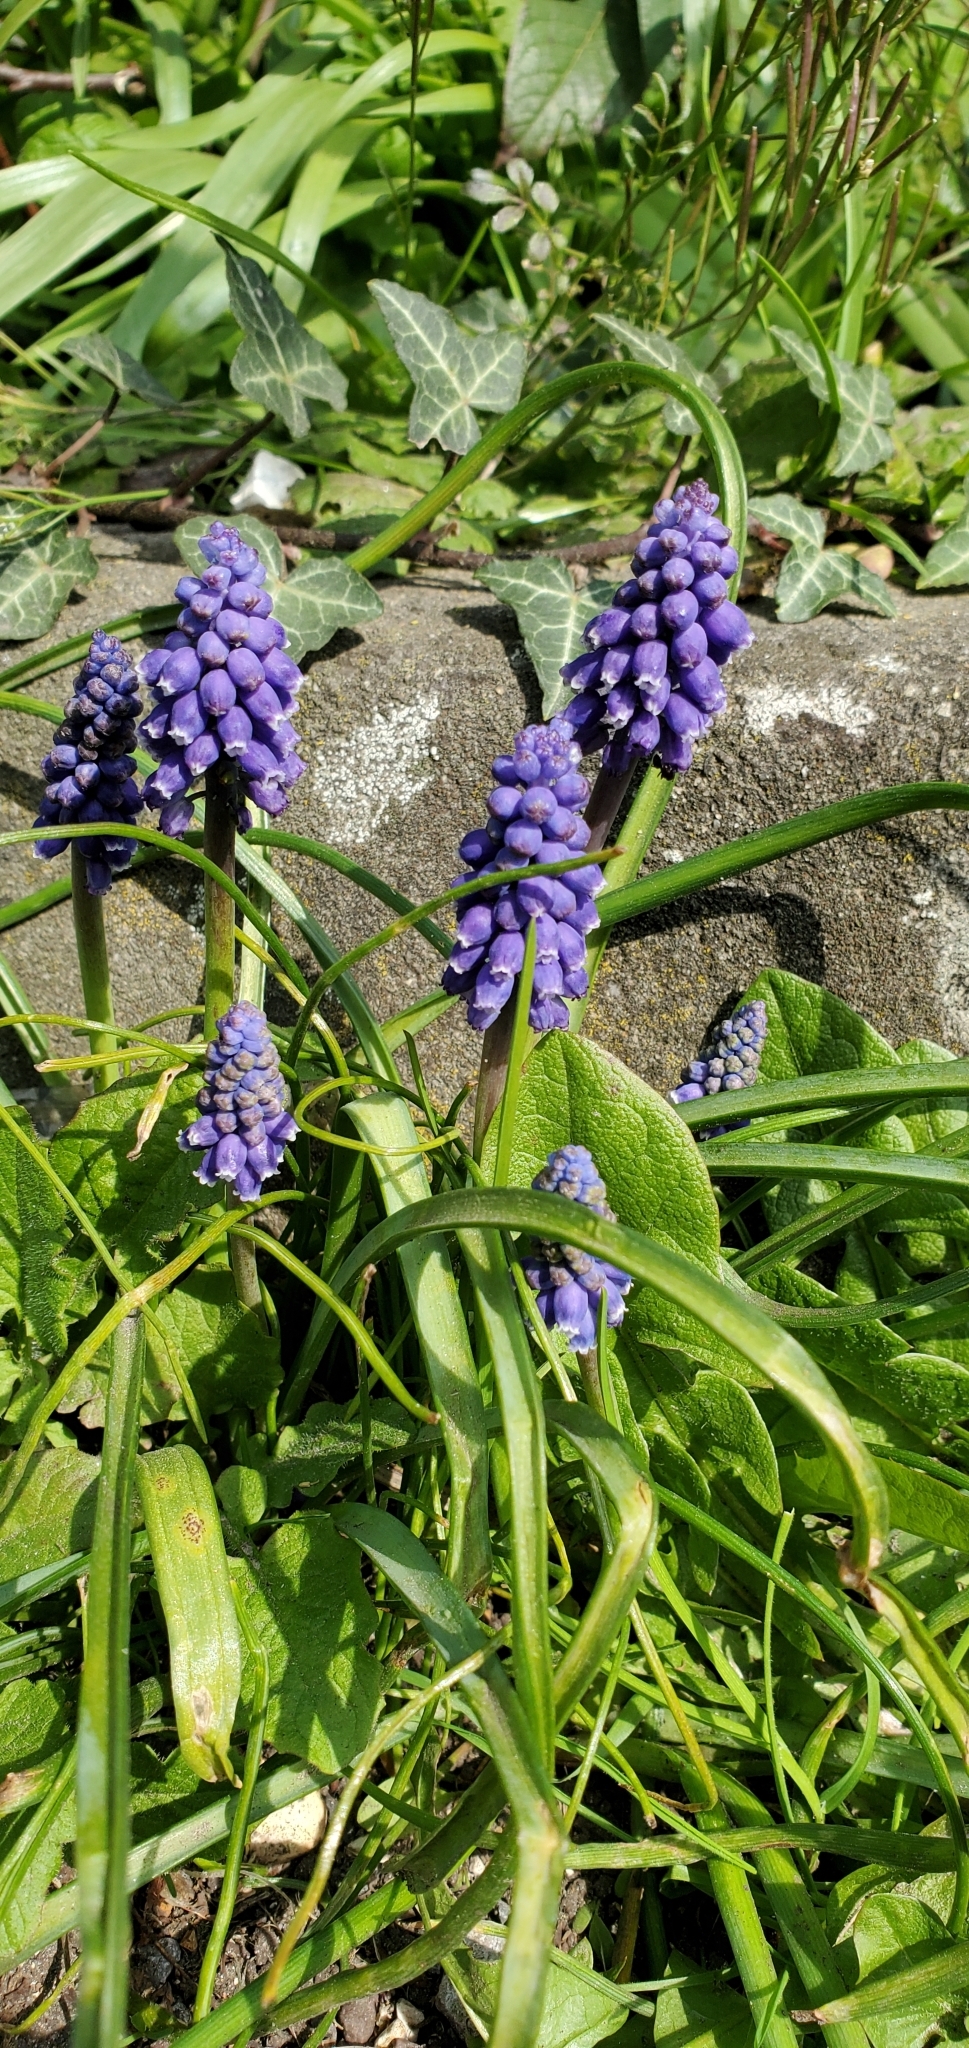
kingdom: Plantae
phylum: Tracheophyta
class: Liliopsida
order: Asparagales
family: Asparagaceae
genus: Muscari
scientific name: Muscari armeniacum
